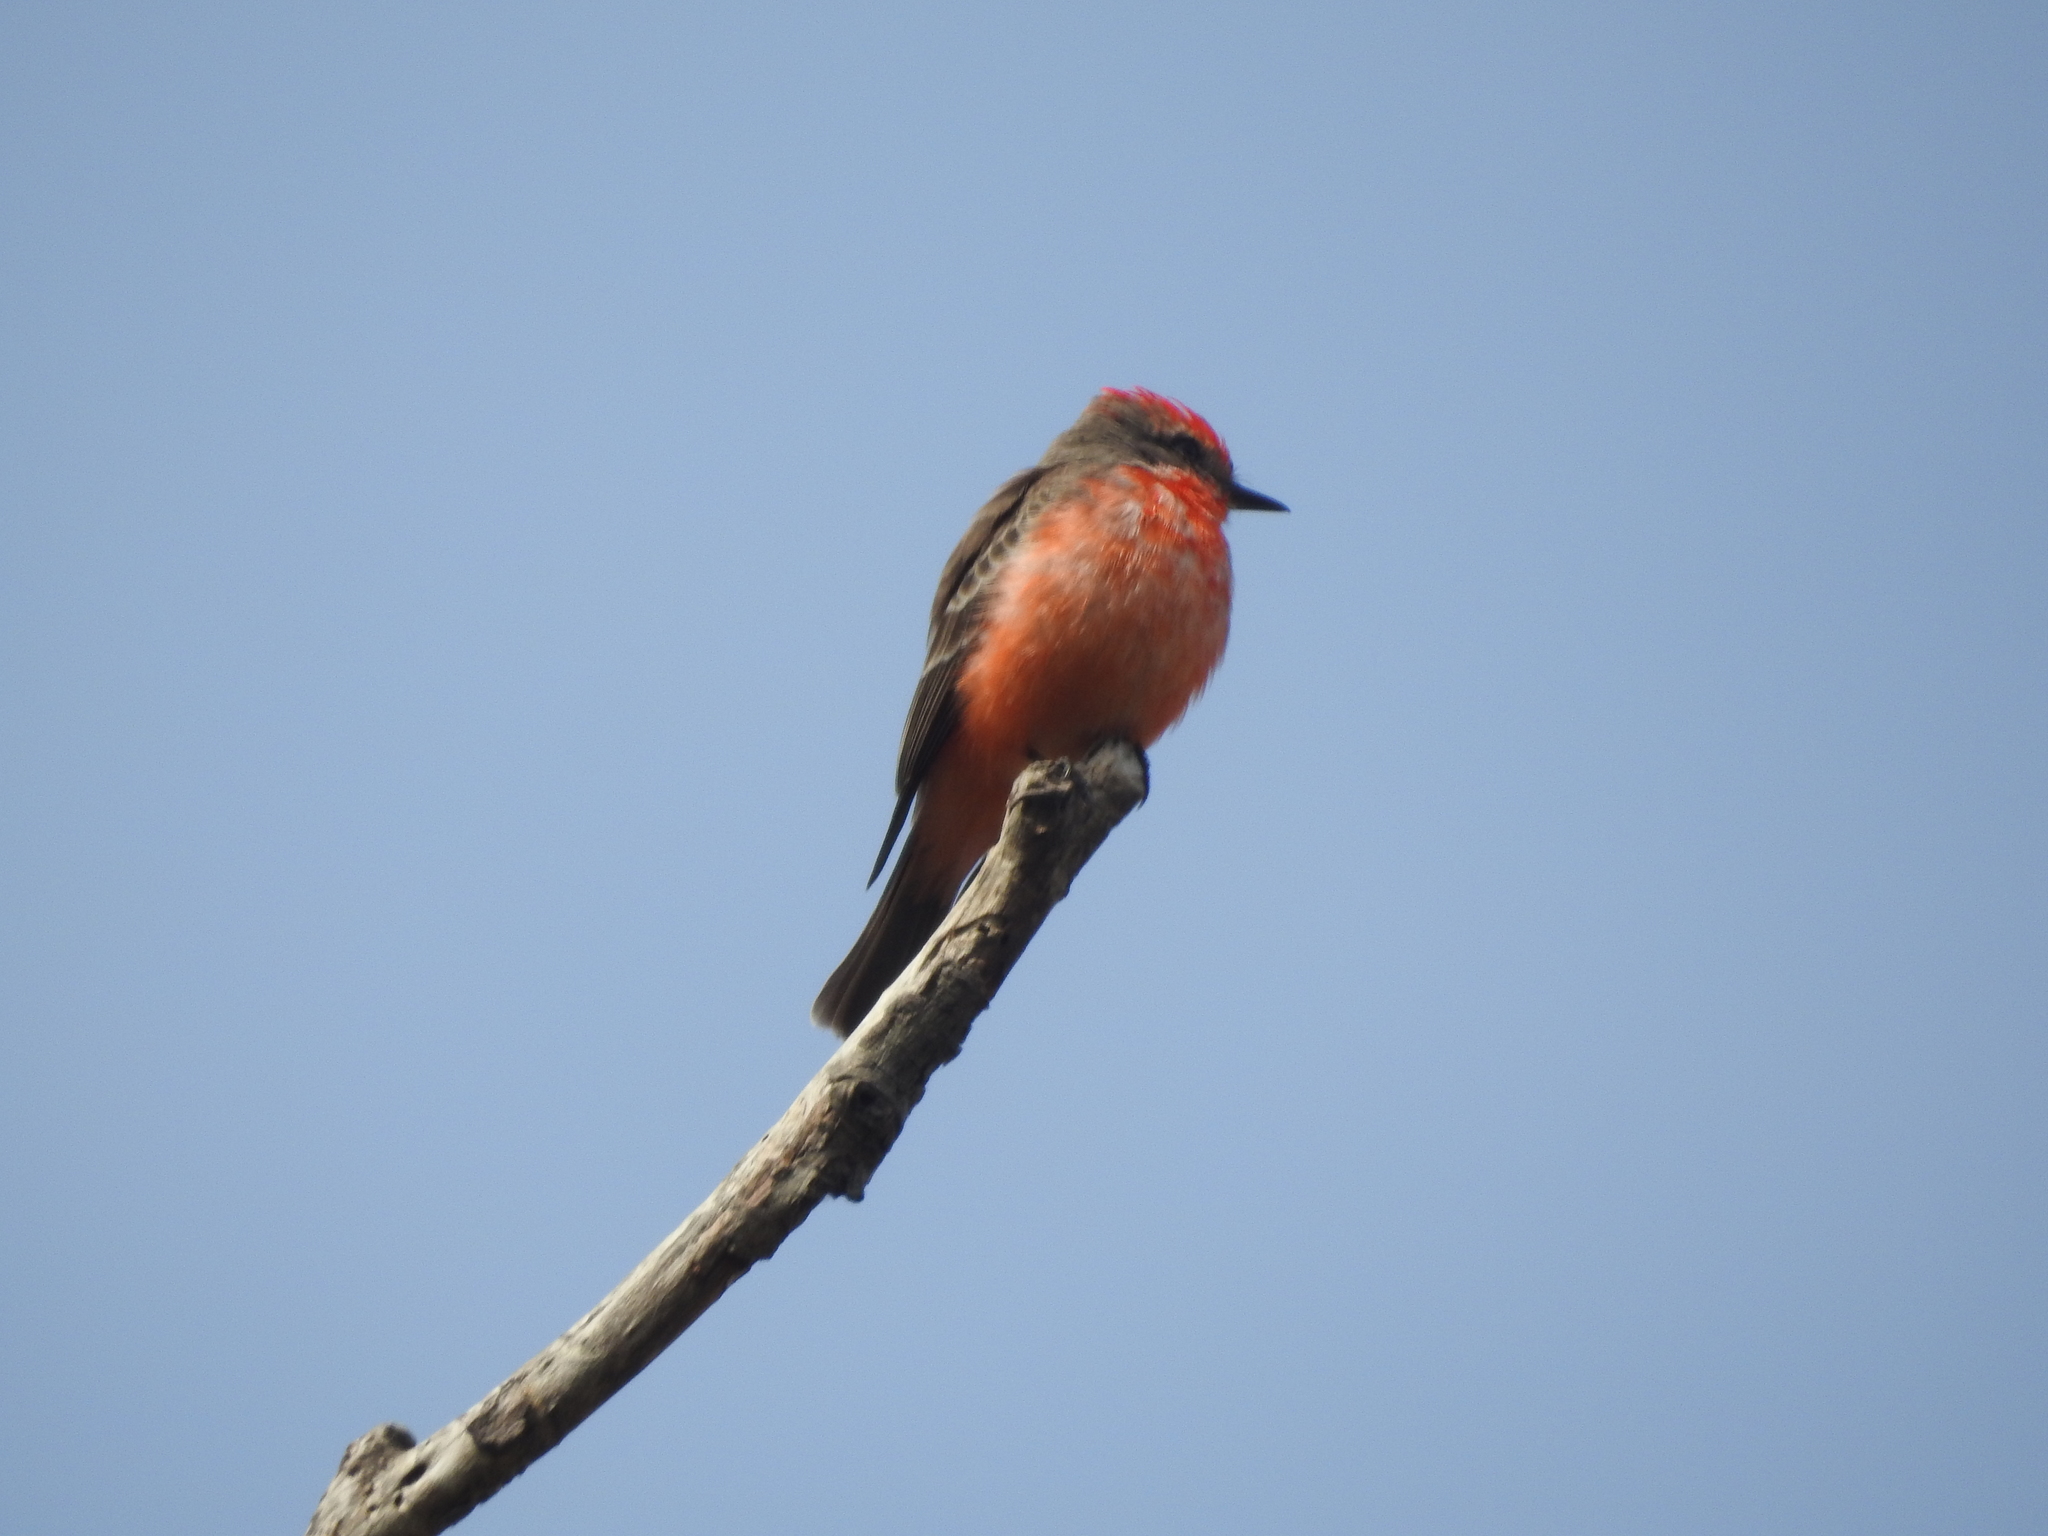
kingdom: Animalia
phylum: Chordata
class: Aves
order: Passeriformes
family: Tyrannidae
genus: Pyrocephalus
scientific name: Pyrocephalus rubinus
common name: Vermilion flycatcher
